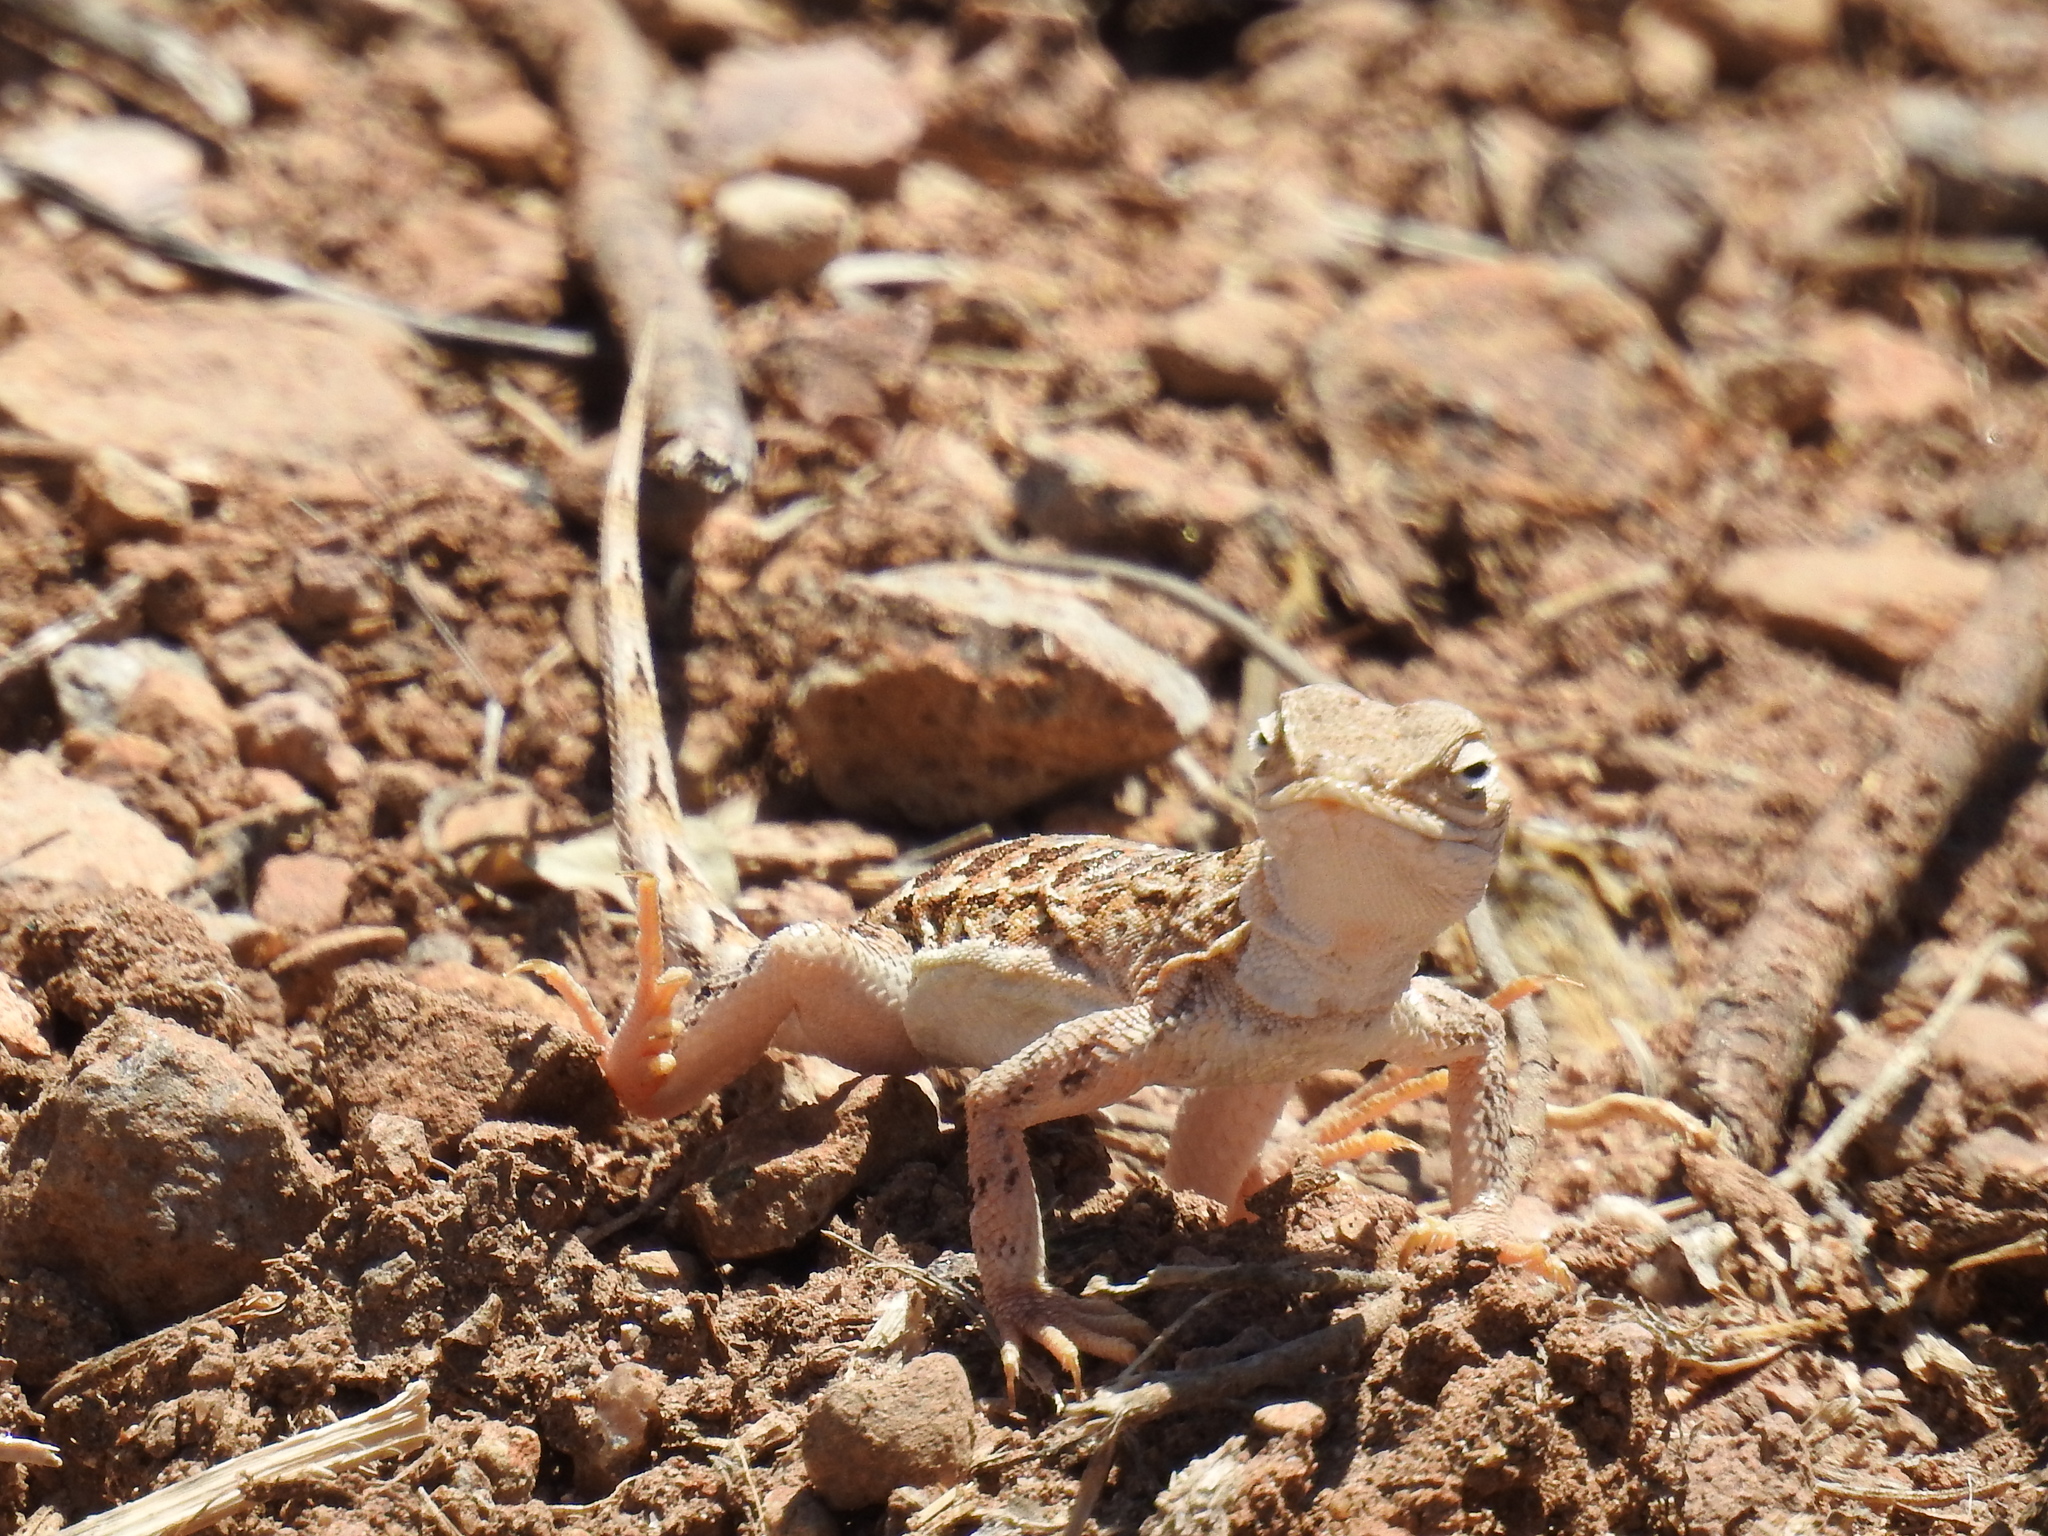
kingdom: Animalia
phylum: Chordata
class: Squamata
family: Phrynosomatidae
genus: Holbrookia
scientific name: Holbrookia elegans
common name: Elegant earless lizard
